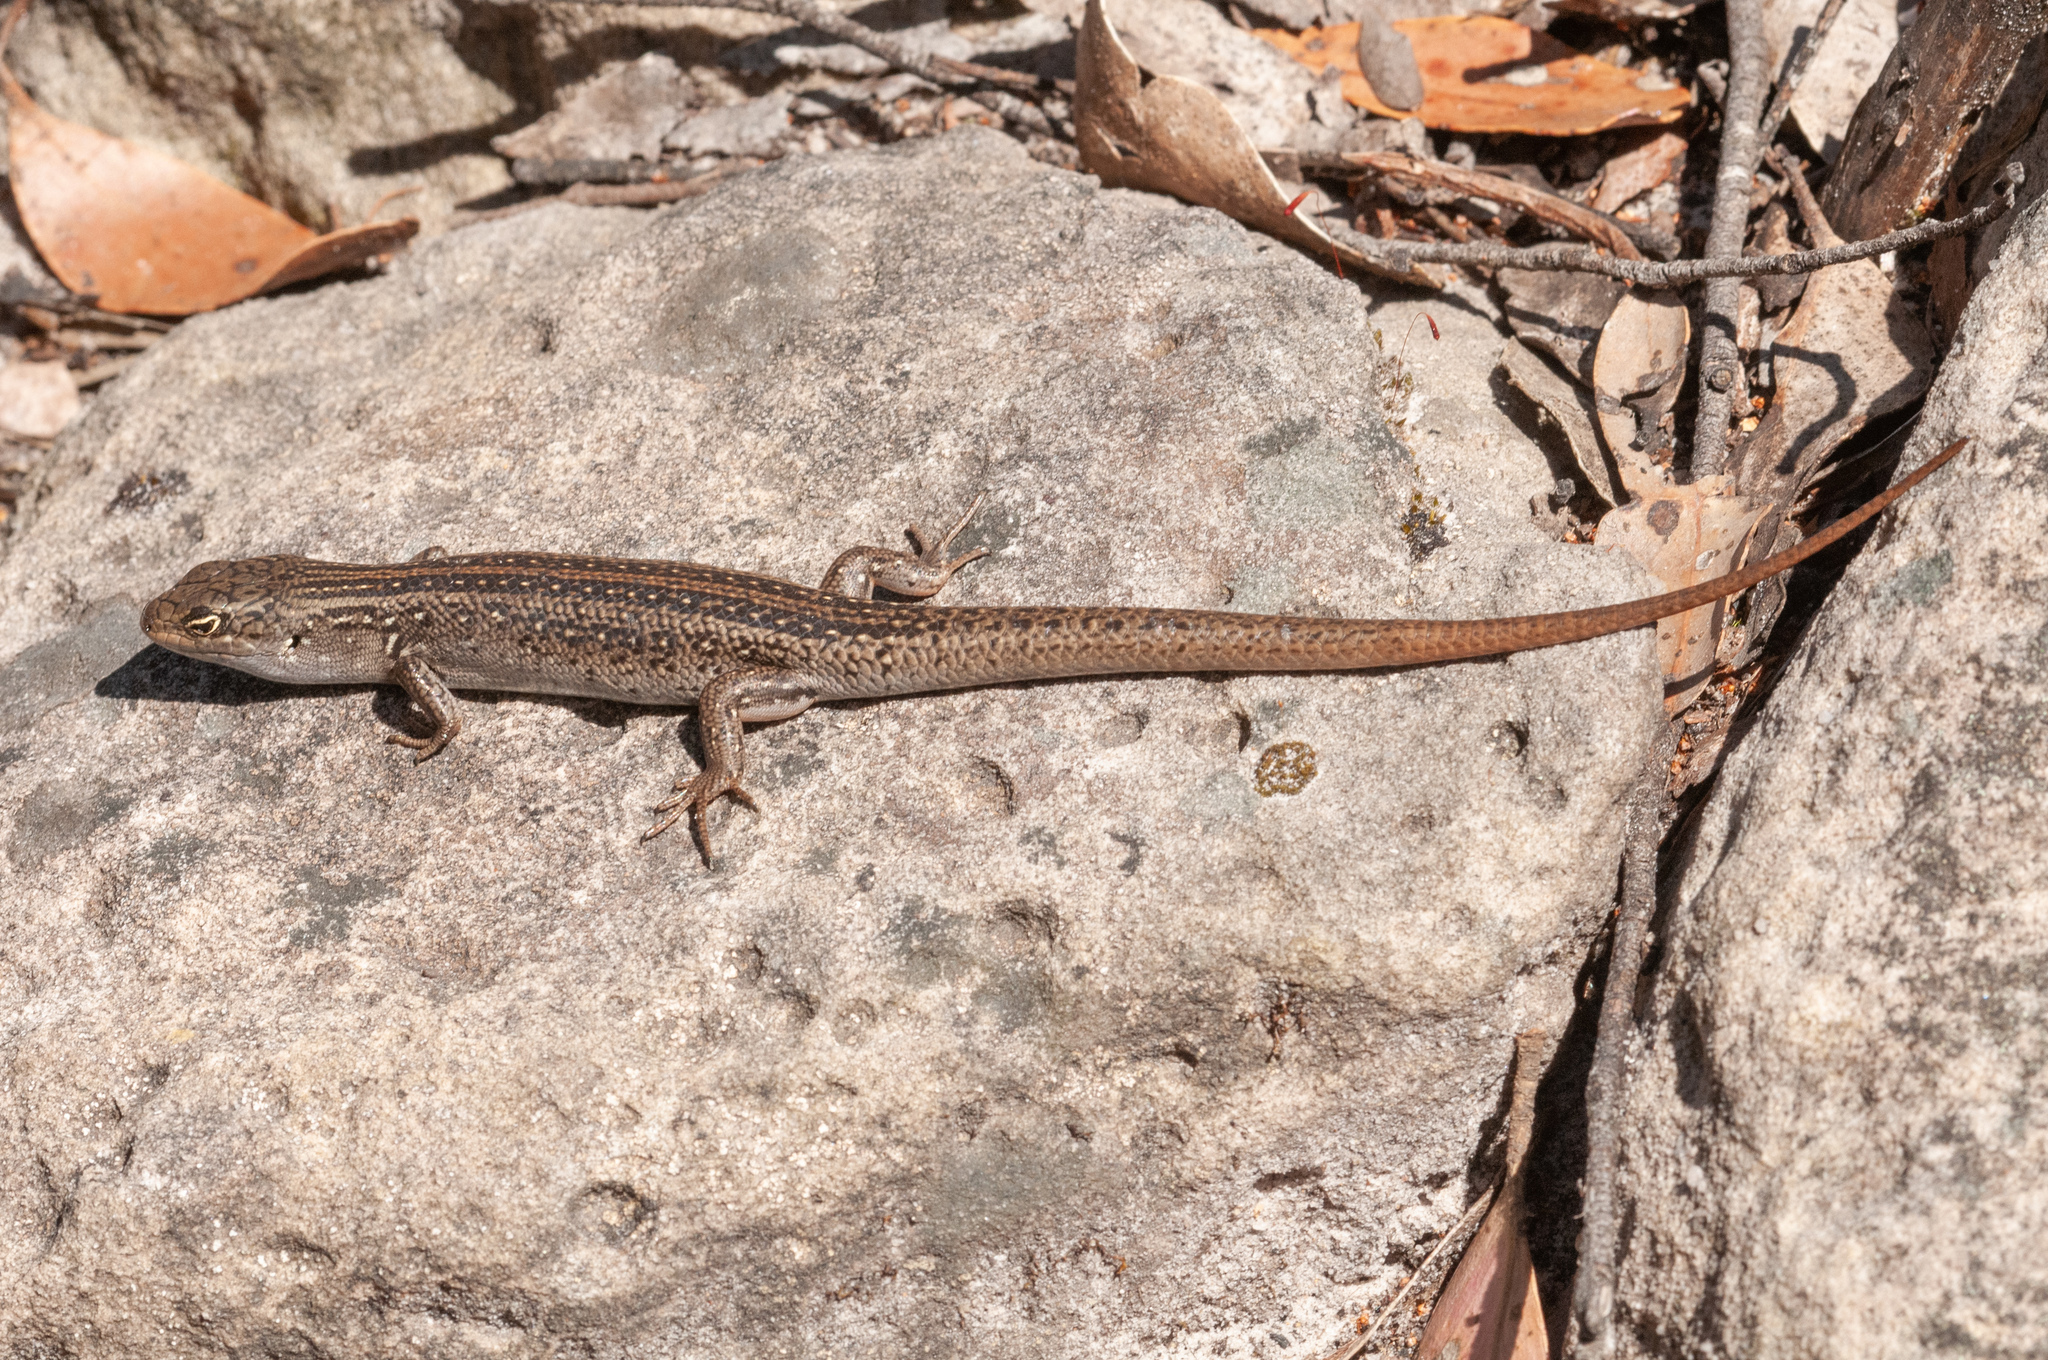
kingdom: Animalia
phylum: Chordata
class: Squamata
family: Scincidae
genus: Liopholis
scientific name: Liopholis whitii
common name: White's rock-skink
